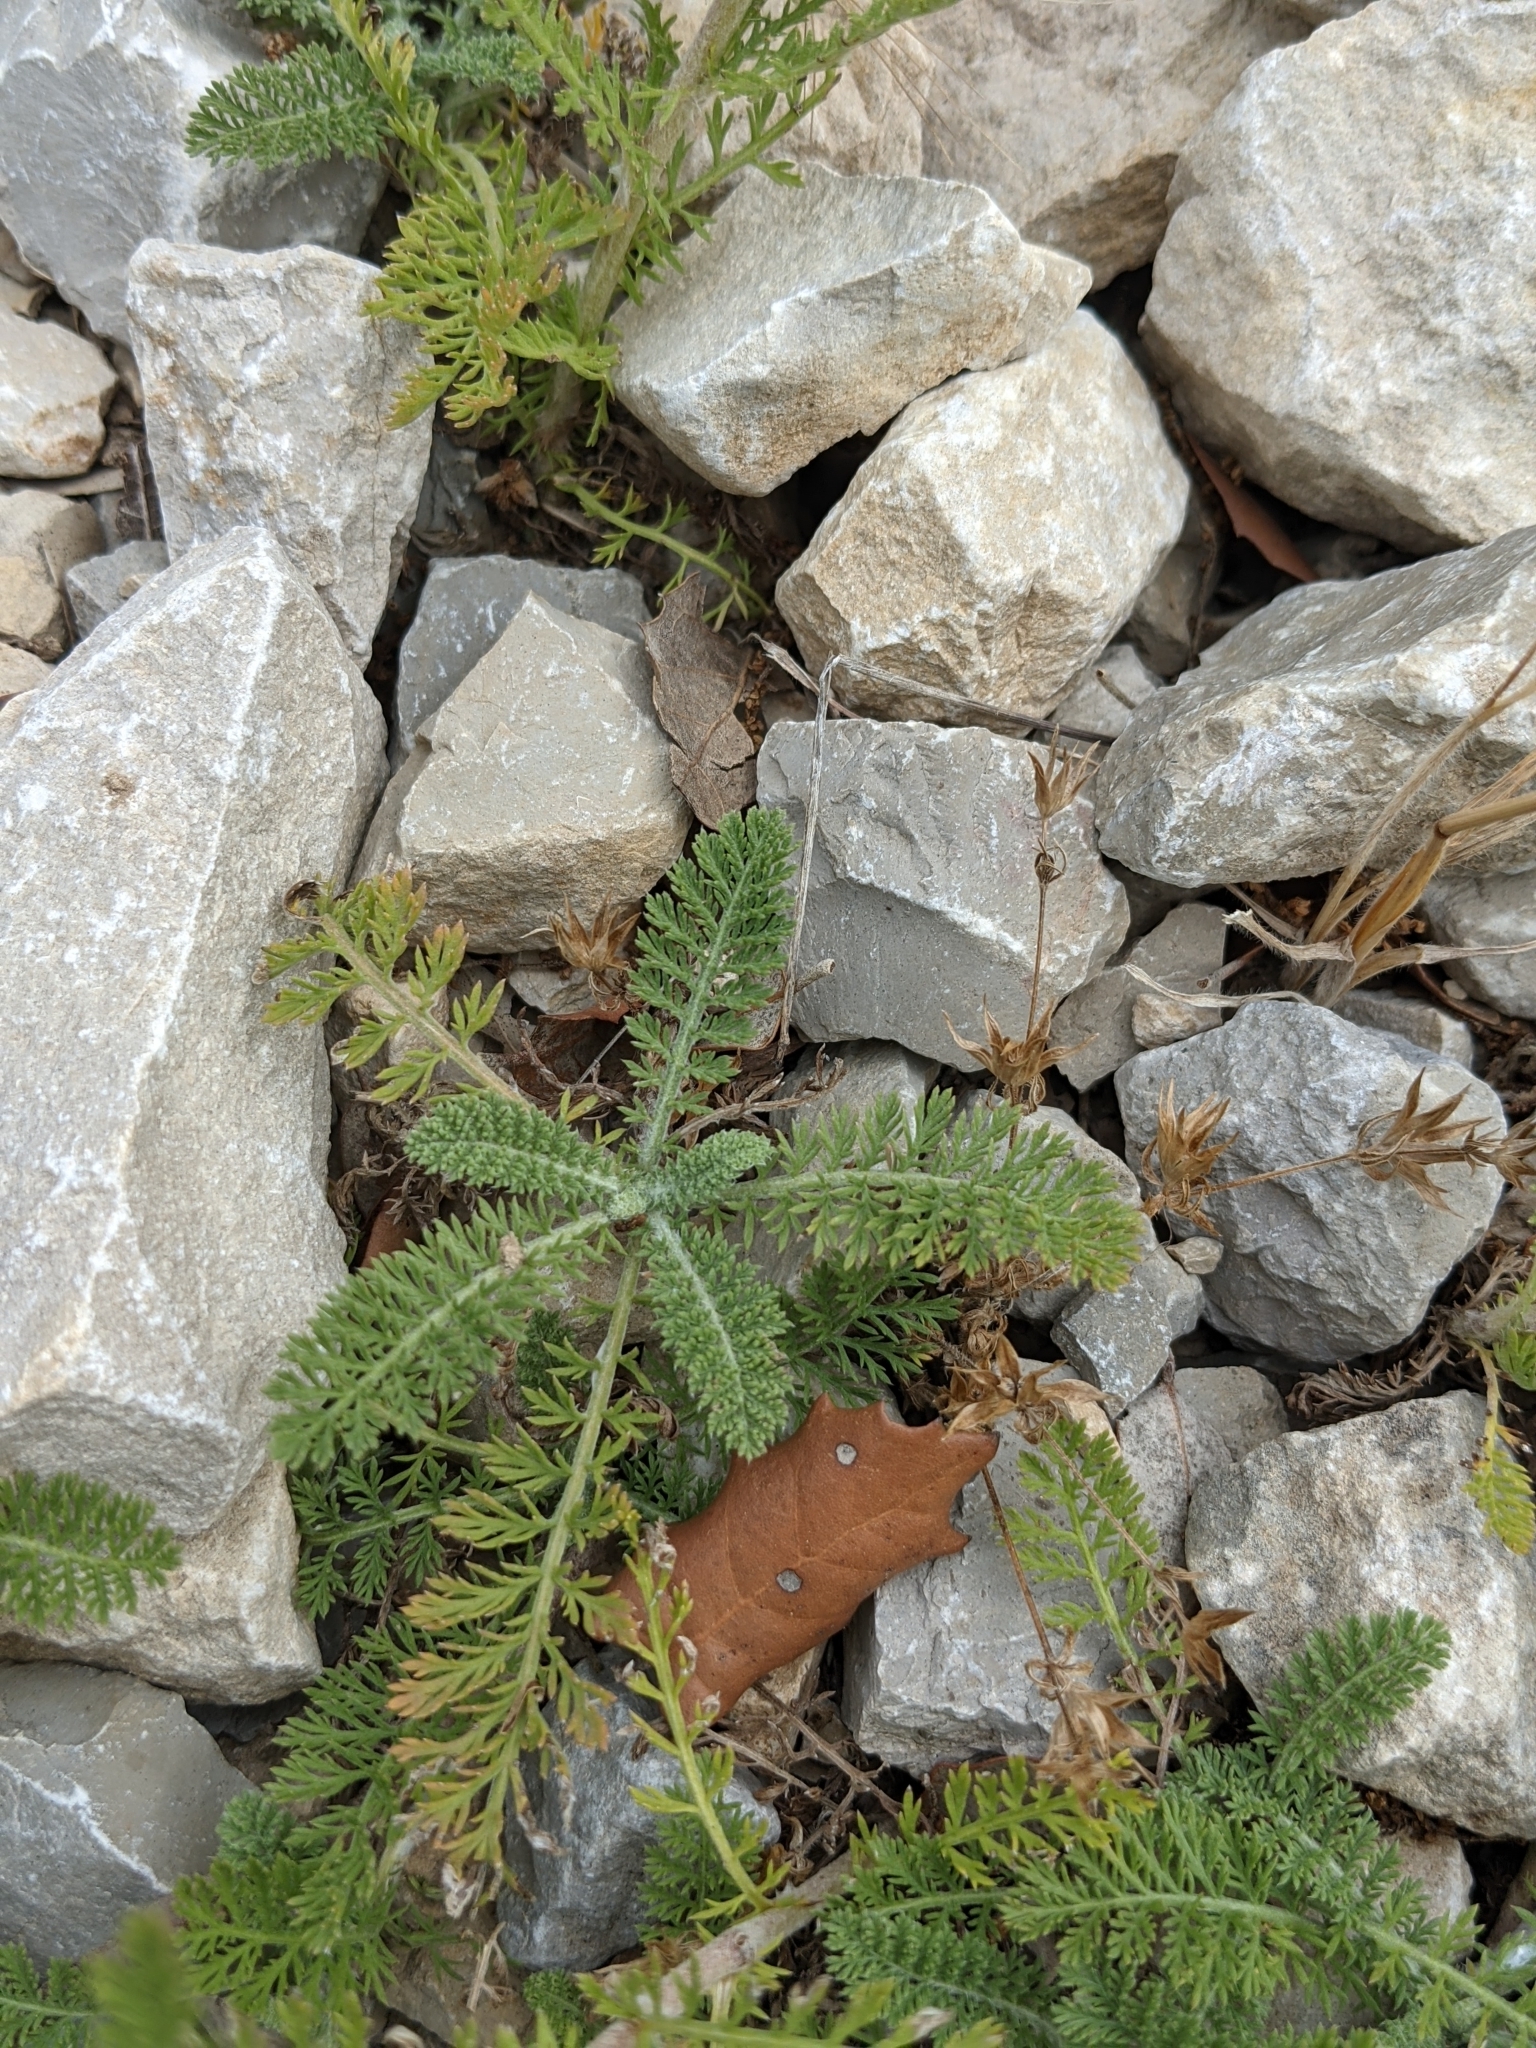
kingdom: Plantae
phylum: Tracheophyta
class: Magnoliopsida
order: Asterales
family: Asteraceae
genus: Achillea
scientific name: Achillea odorata
